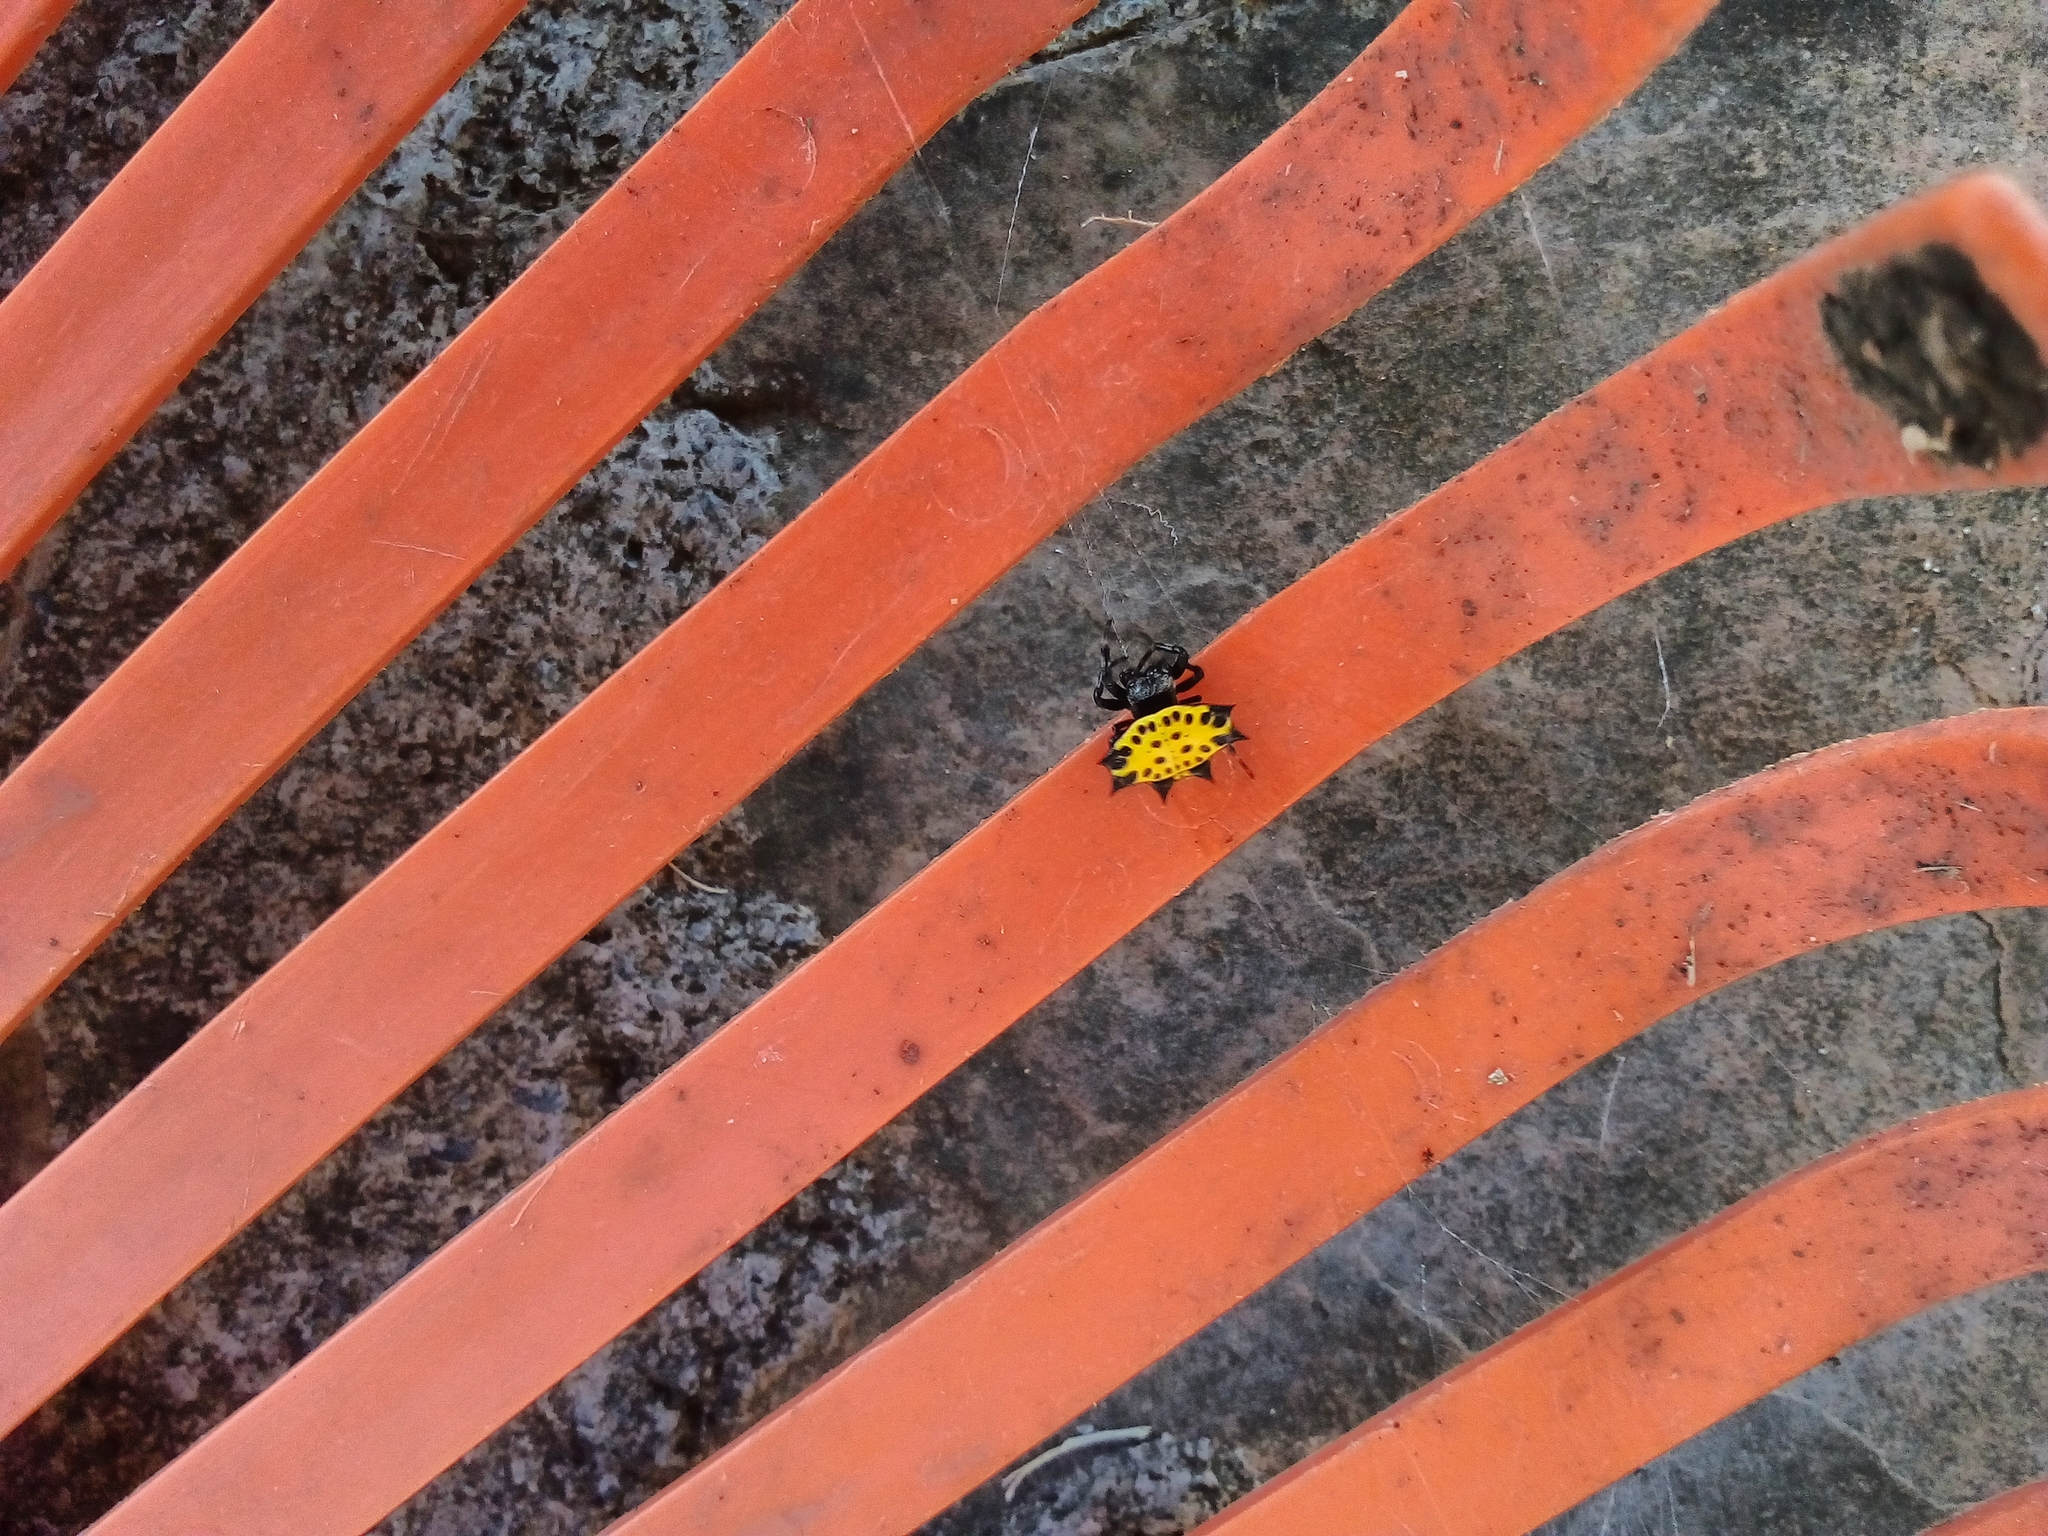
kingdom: Animalia
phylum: Arthropoda
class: Arachnida
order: Araneae
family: Araneidae
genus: Gasteracantha
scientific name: Gasteracantha cancriformis
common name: Orb weavers
